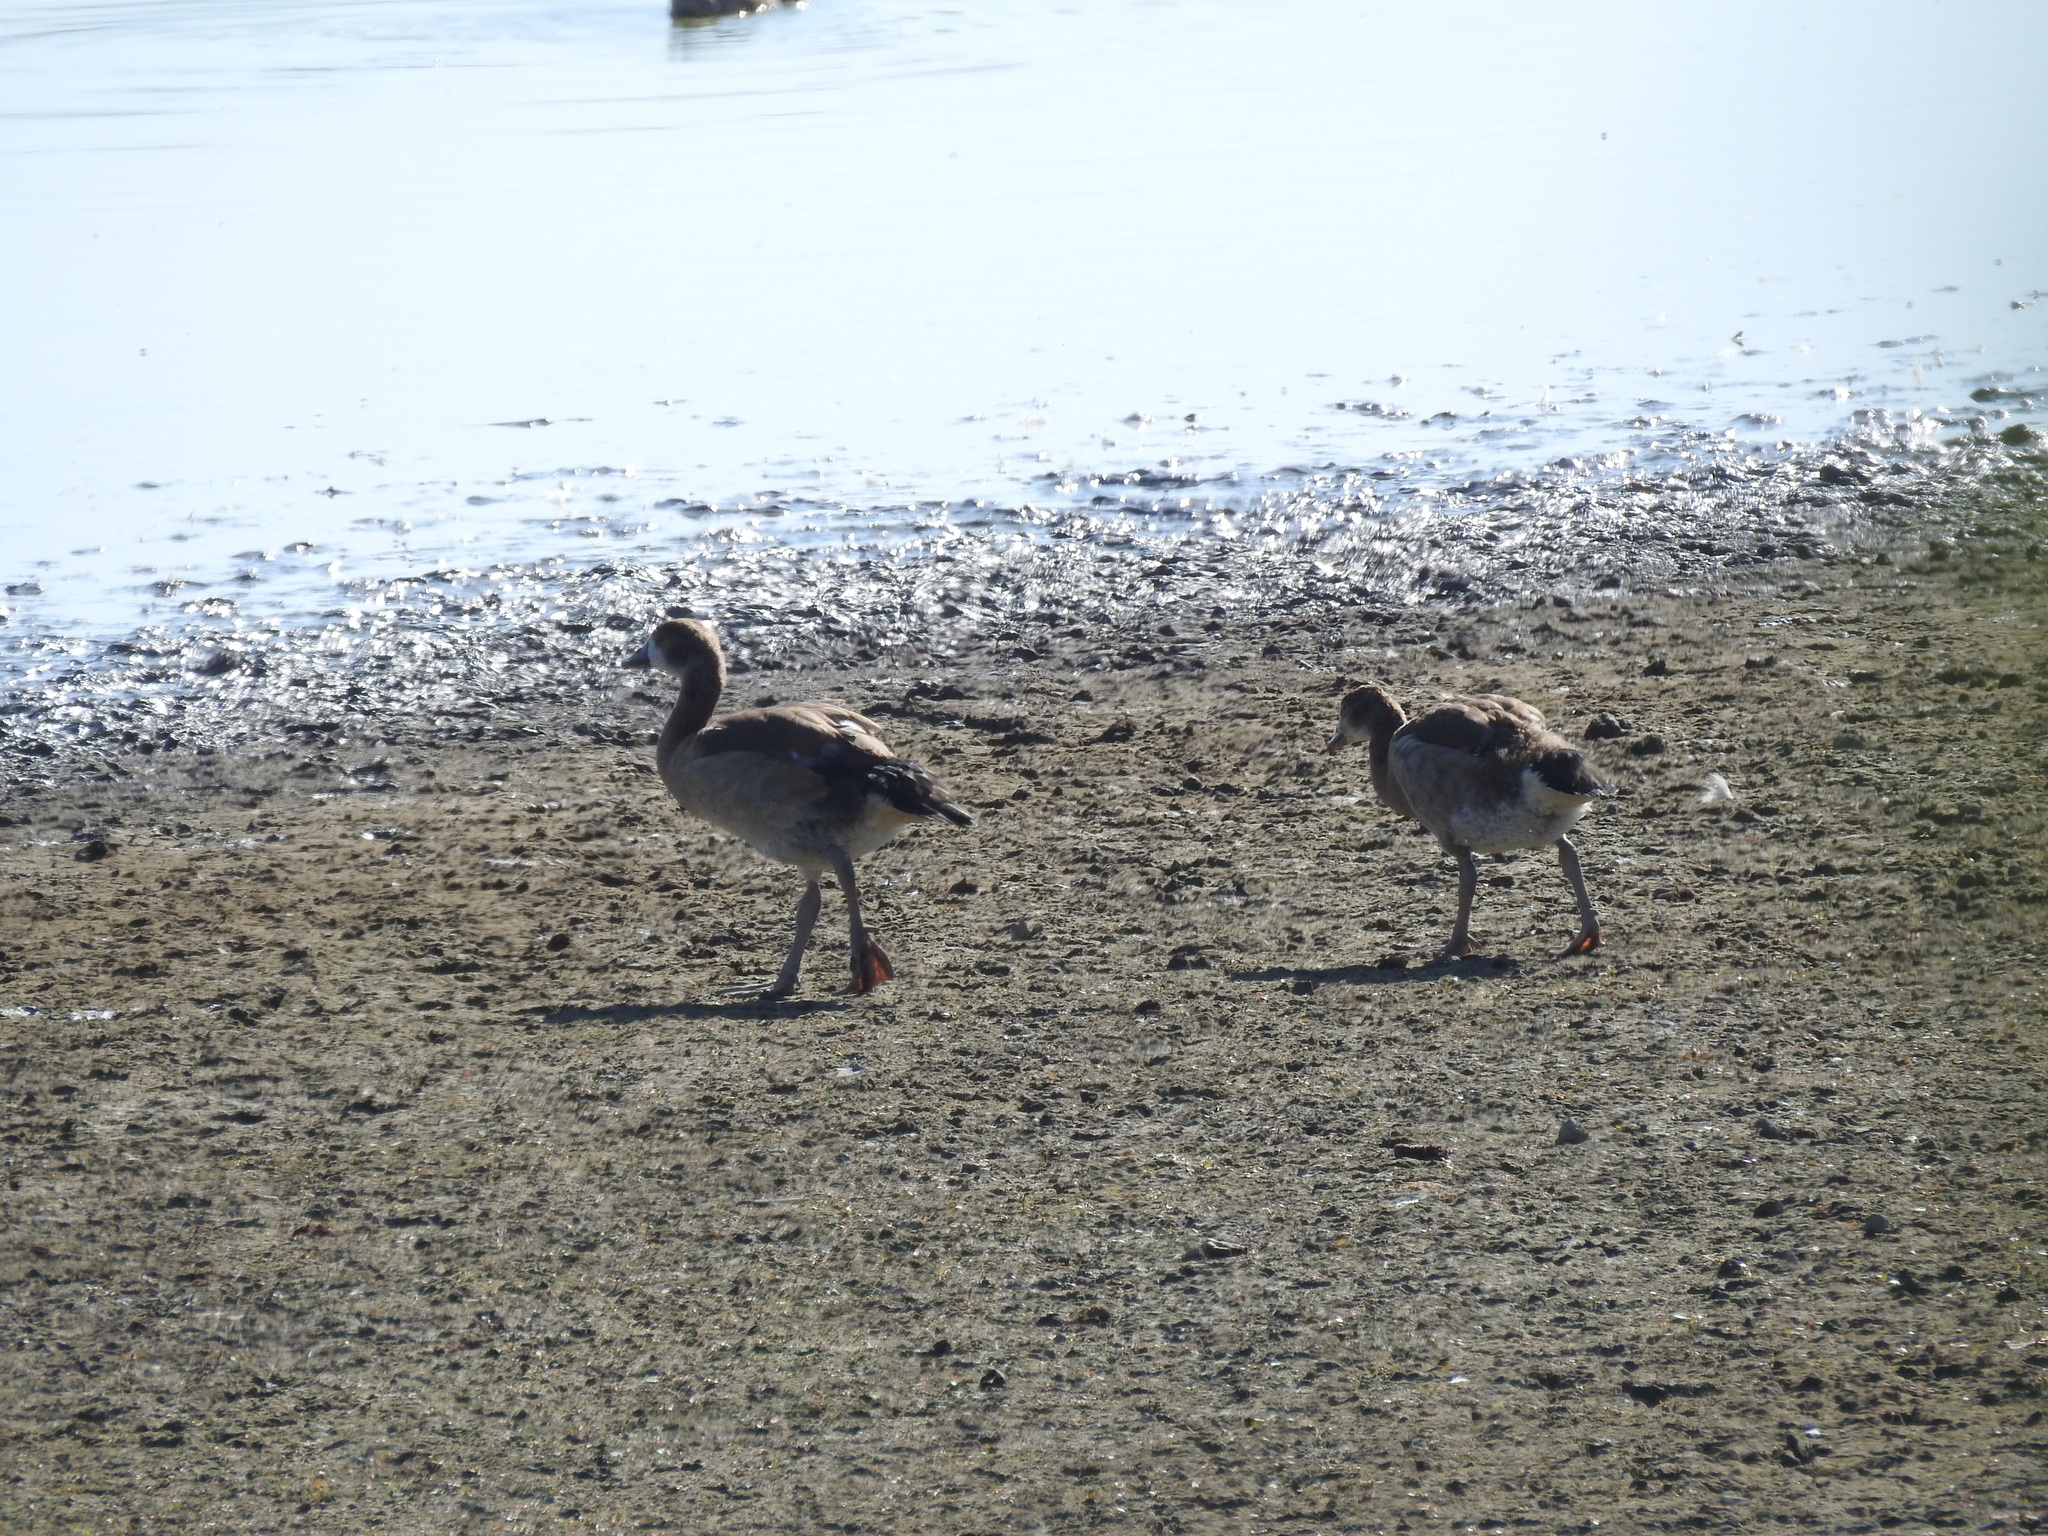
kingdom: Animalia
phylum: Chordata
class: Aves
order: Anseriformes
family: Anatidae
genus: Alopochen
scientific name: Alopochen aegyptiaca
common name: Egyptian goose
